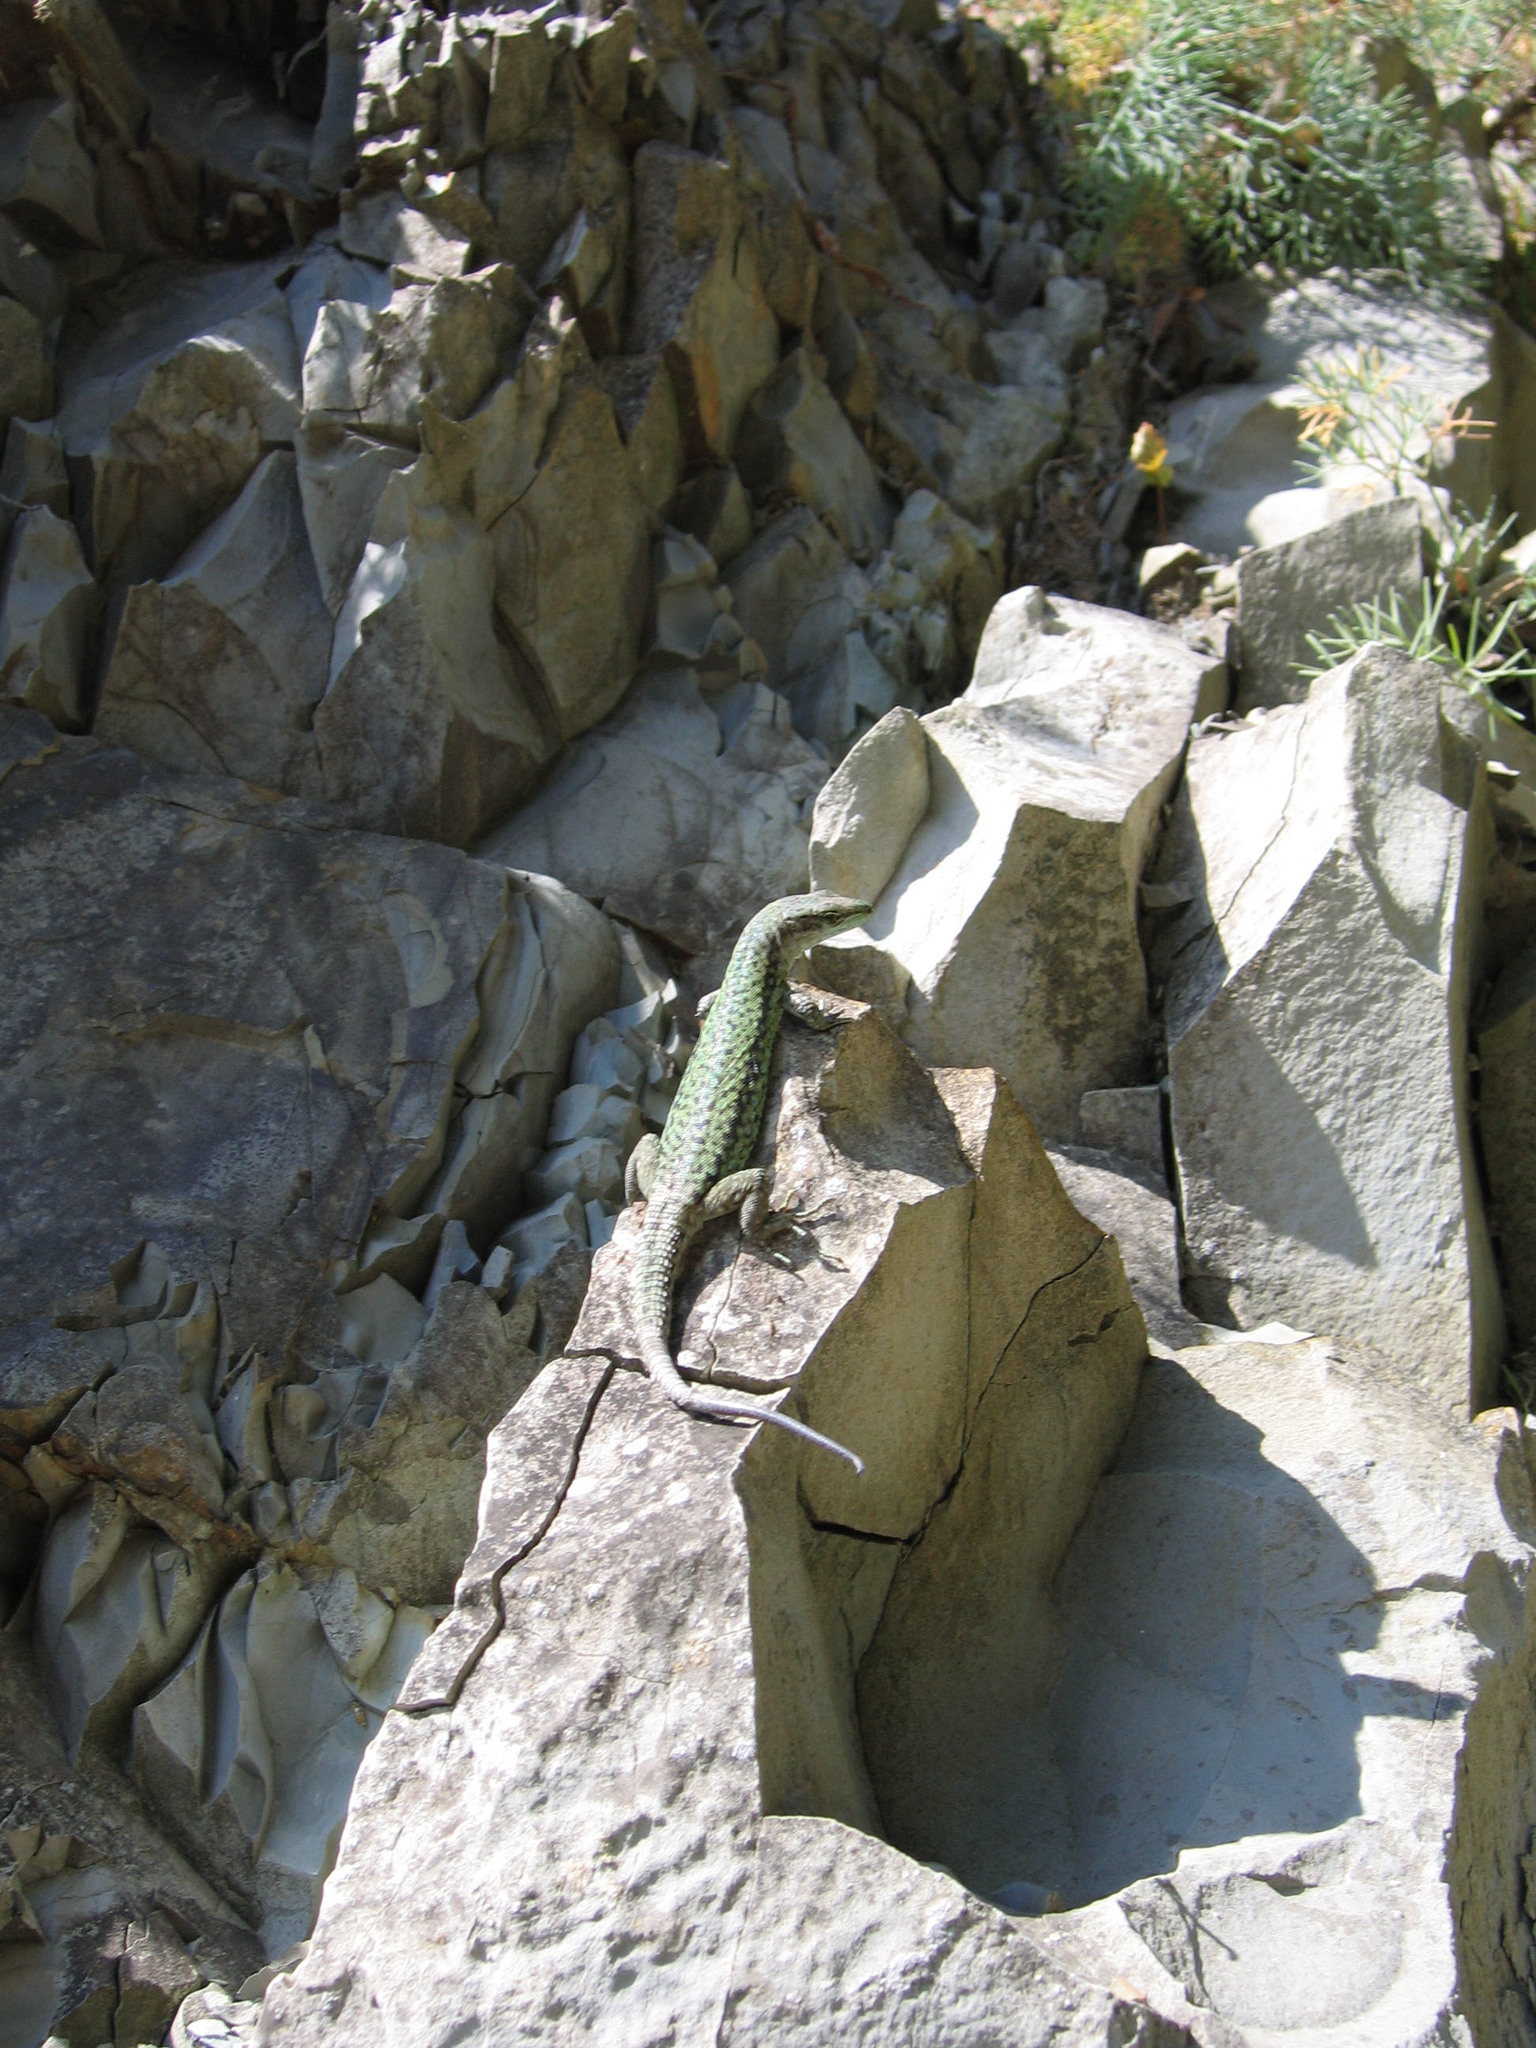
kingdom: Animalia
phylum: Chordata
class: Squamata
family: Lacertidae
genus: Darevskia
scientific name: Darevskia brauneri
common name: Brauner's rock lizard
